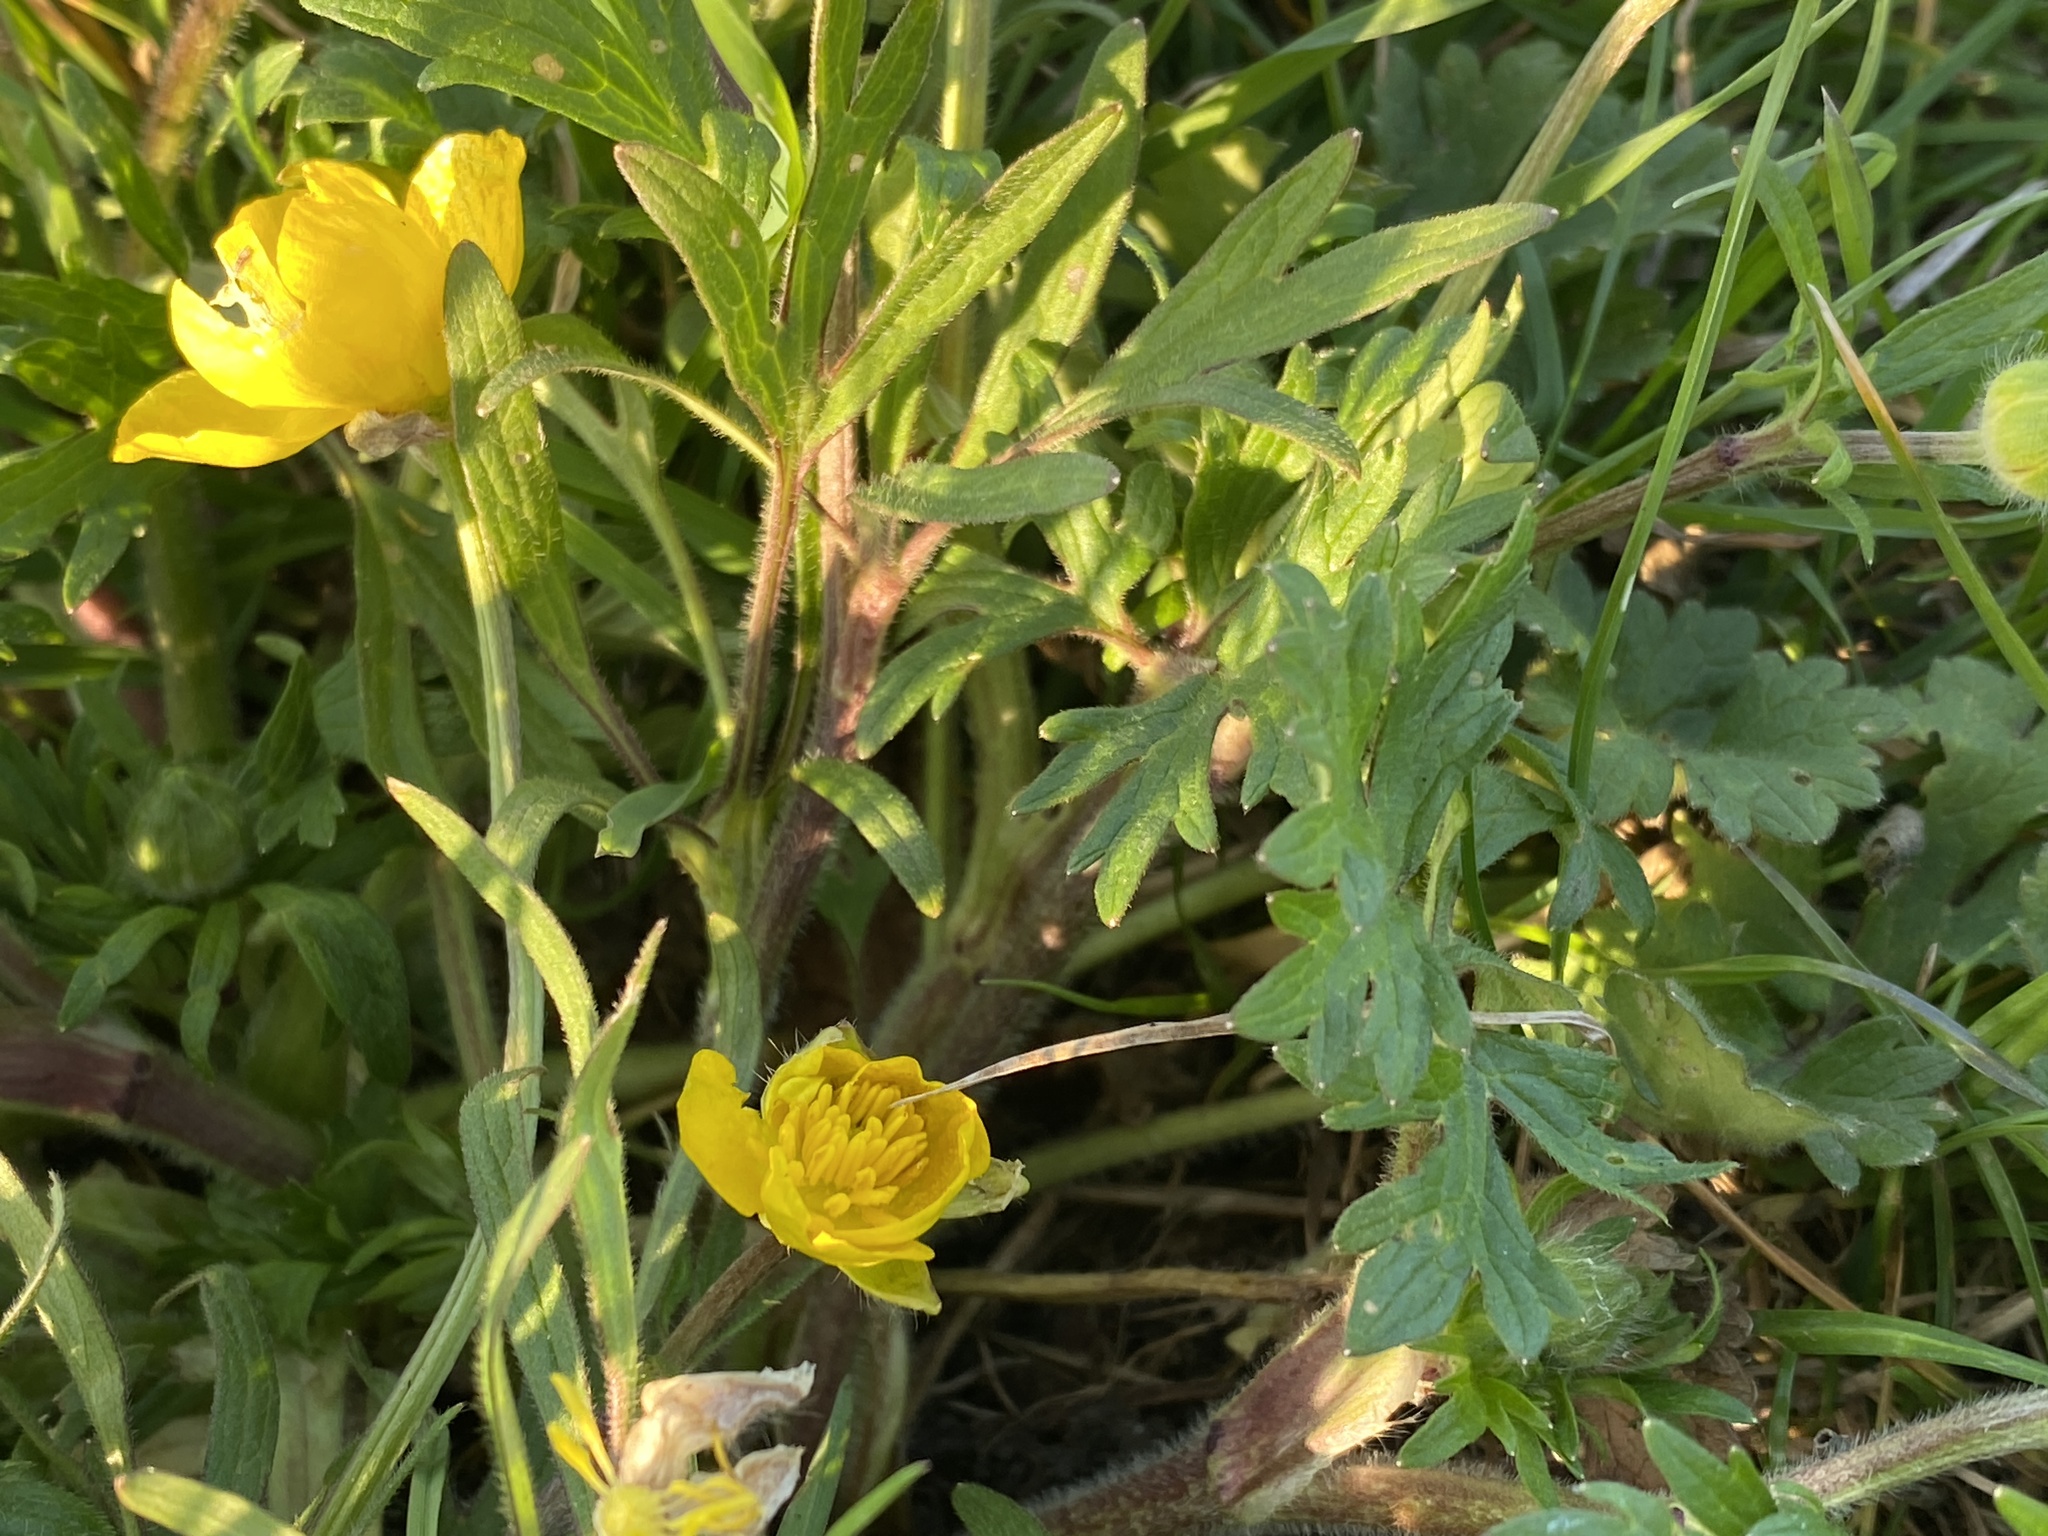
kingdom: Plantae
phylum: Tracheophyta
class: Magnoliopsida
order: Ranunculales
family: Ranunculaceae
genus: Ranunculus
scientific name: Ranunculus bulbosus
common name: Bulbous buttercup
